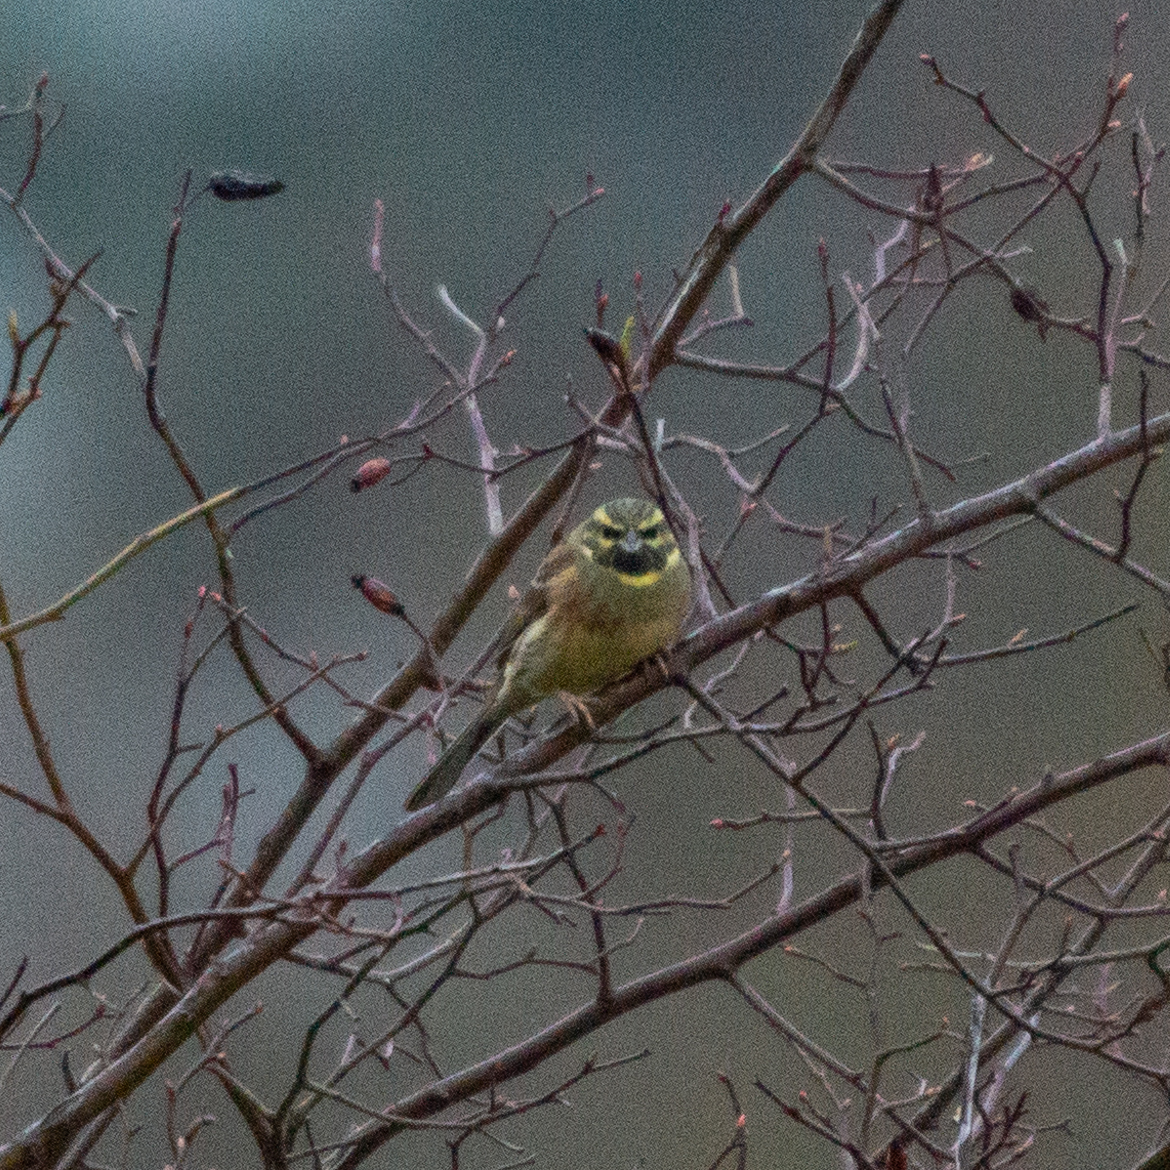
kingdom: Animalia
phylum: Chordata
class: Aves
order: Passeriformes
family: Emberizidae
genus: Emberiza
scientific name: Emberiza cirlus
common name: Cirl bunting
